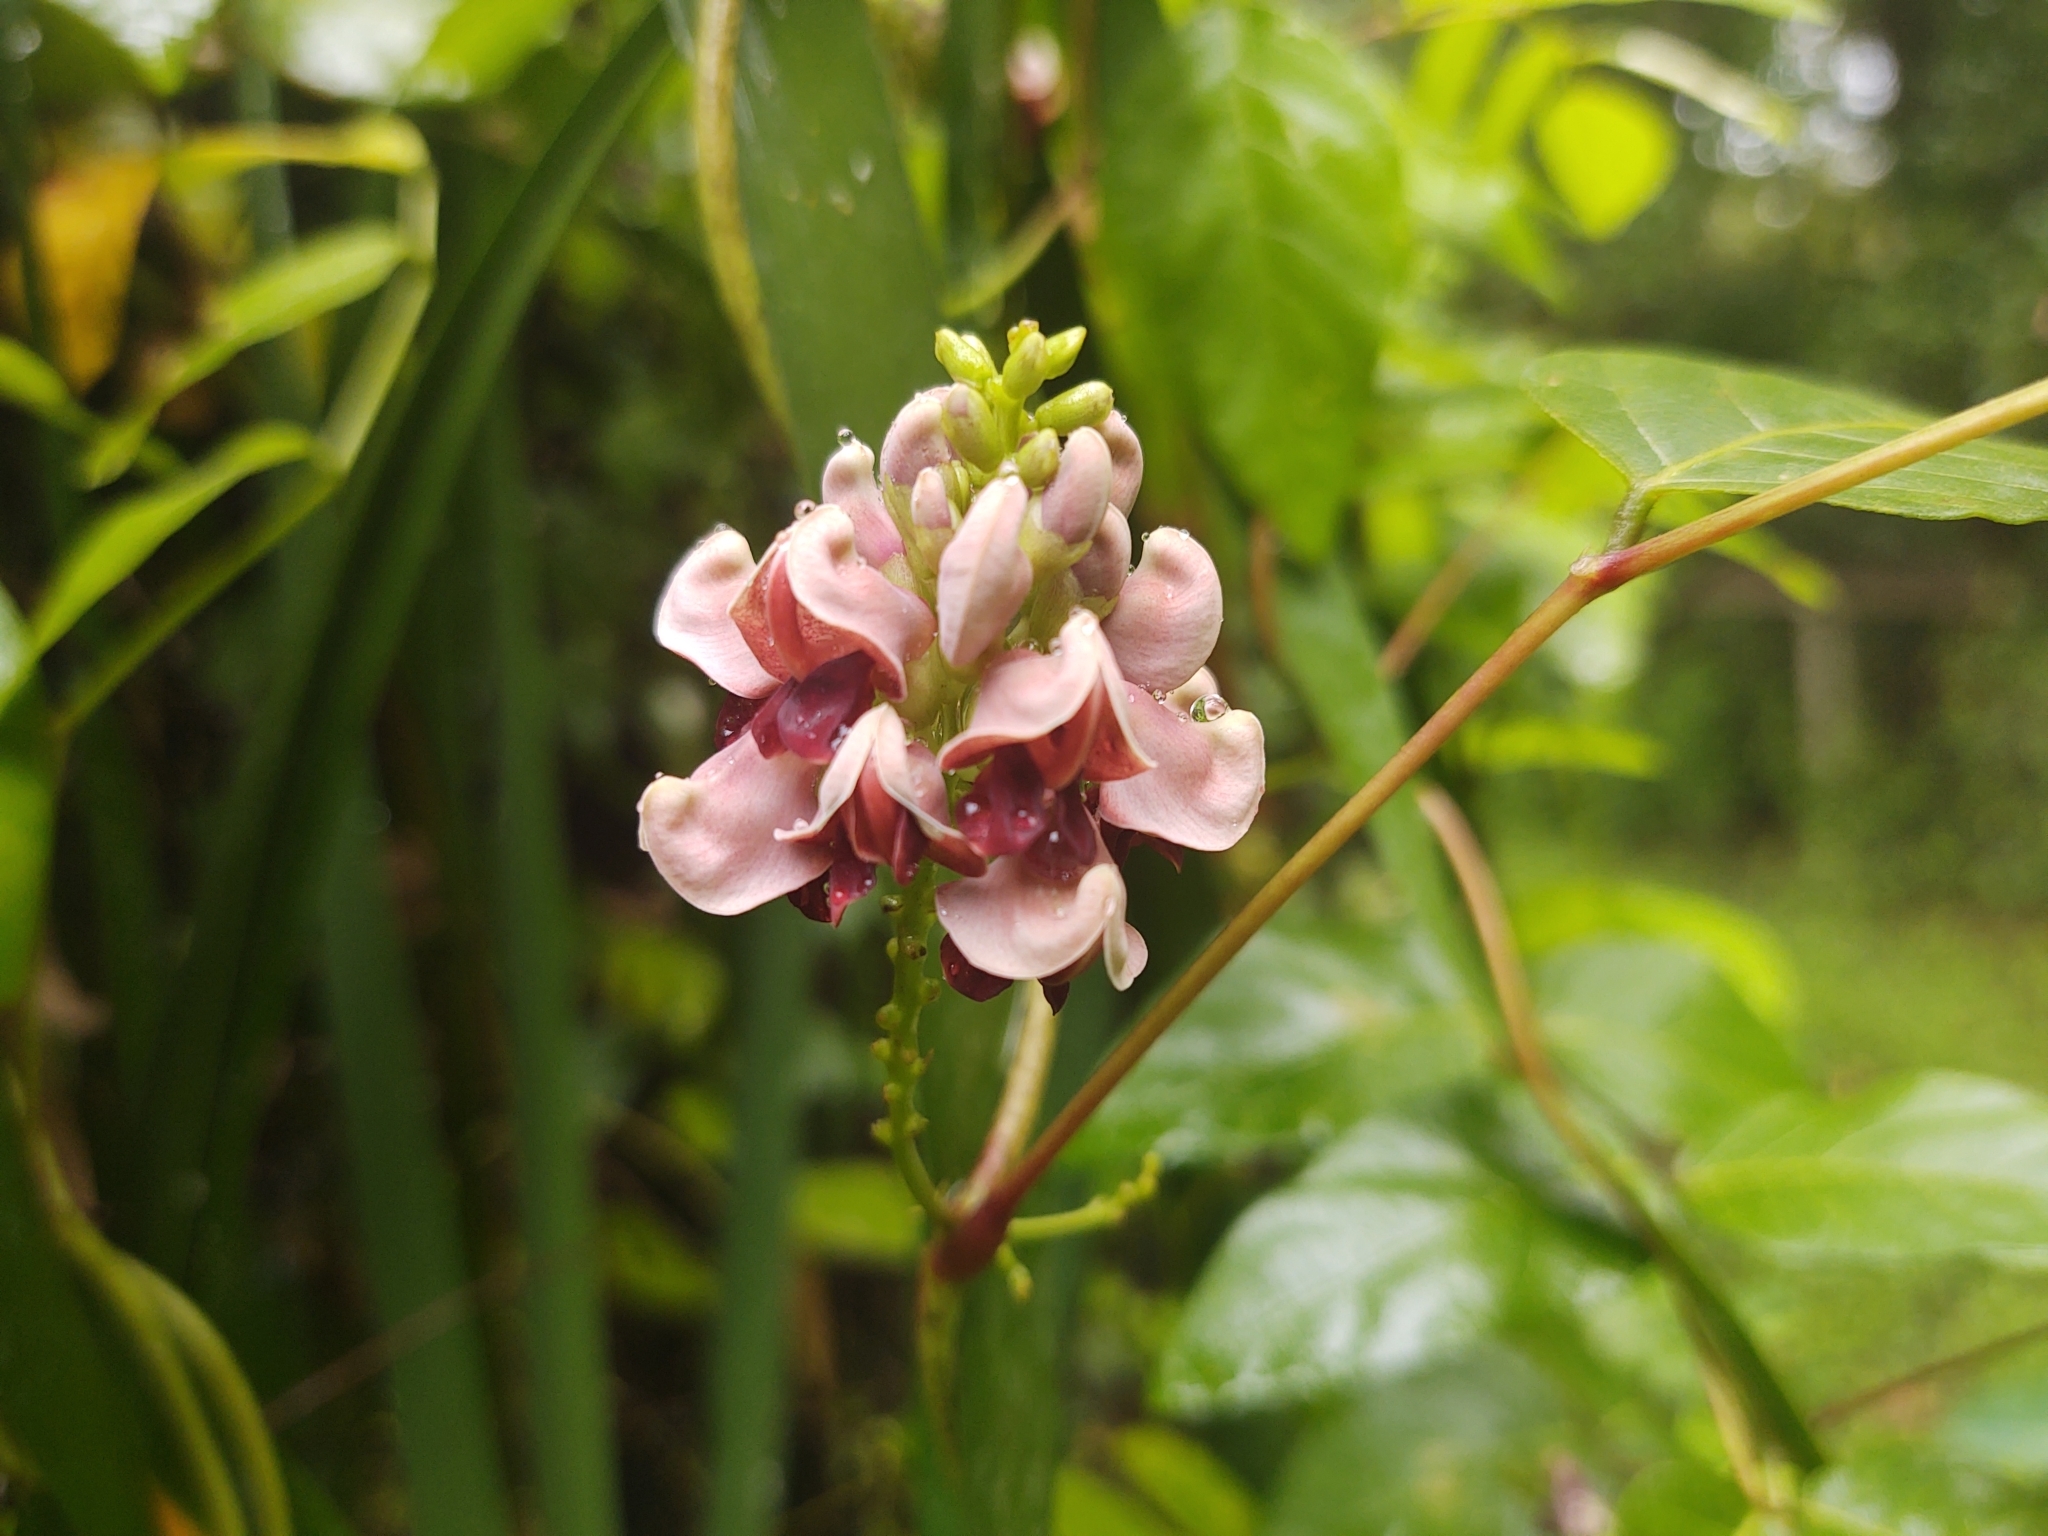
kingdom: Plantae
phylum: Tracheophyta
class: Magnoliopsida
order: Fabales
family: Fabaceae
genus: Apios
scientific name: Apios americana
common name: American potato-bean
